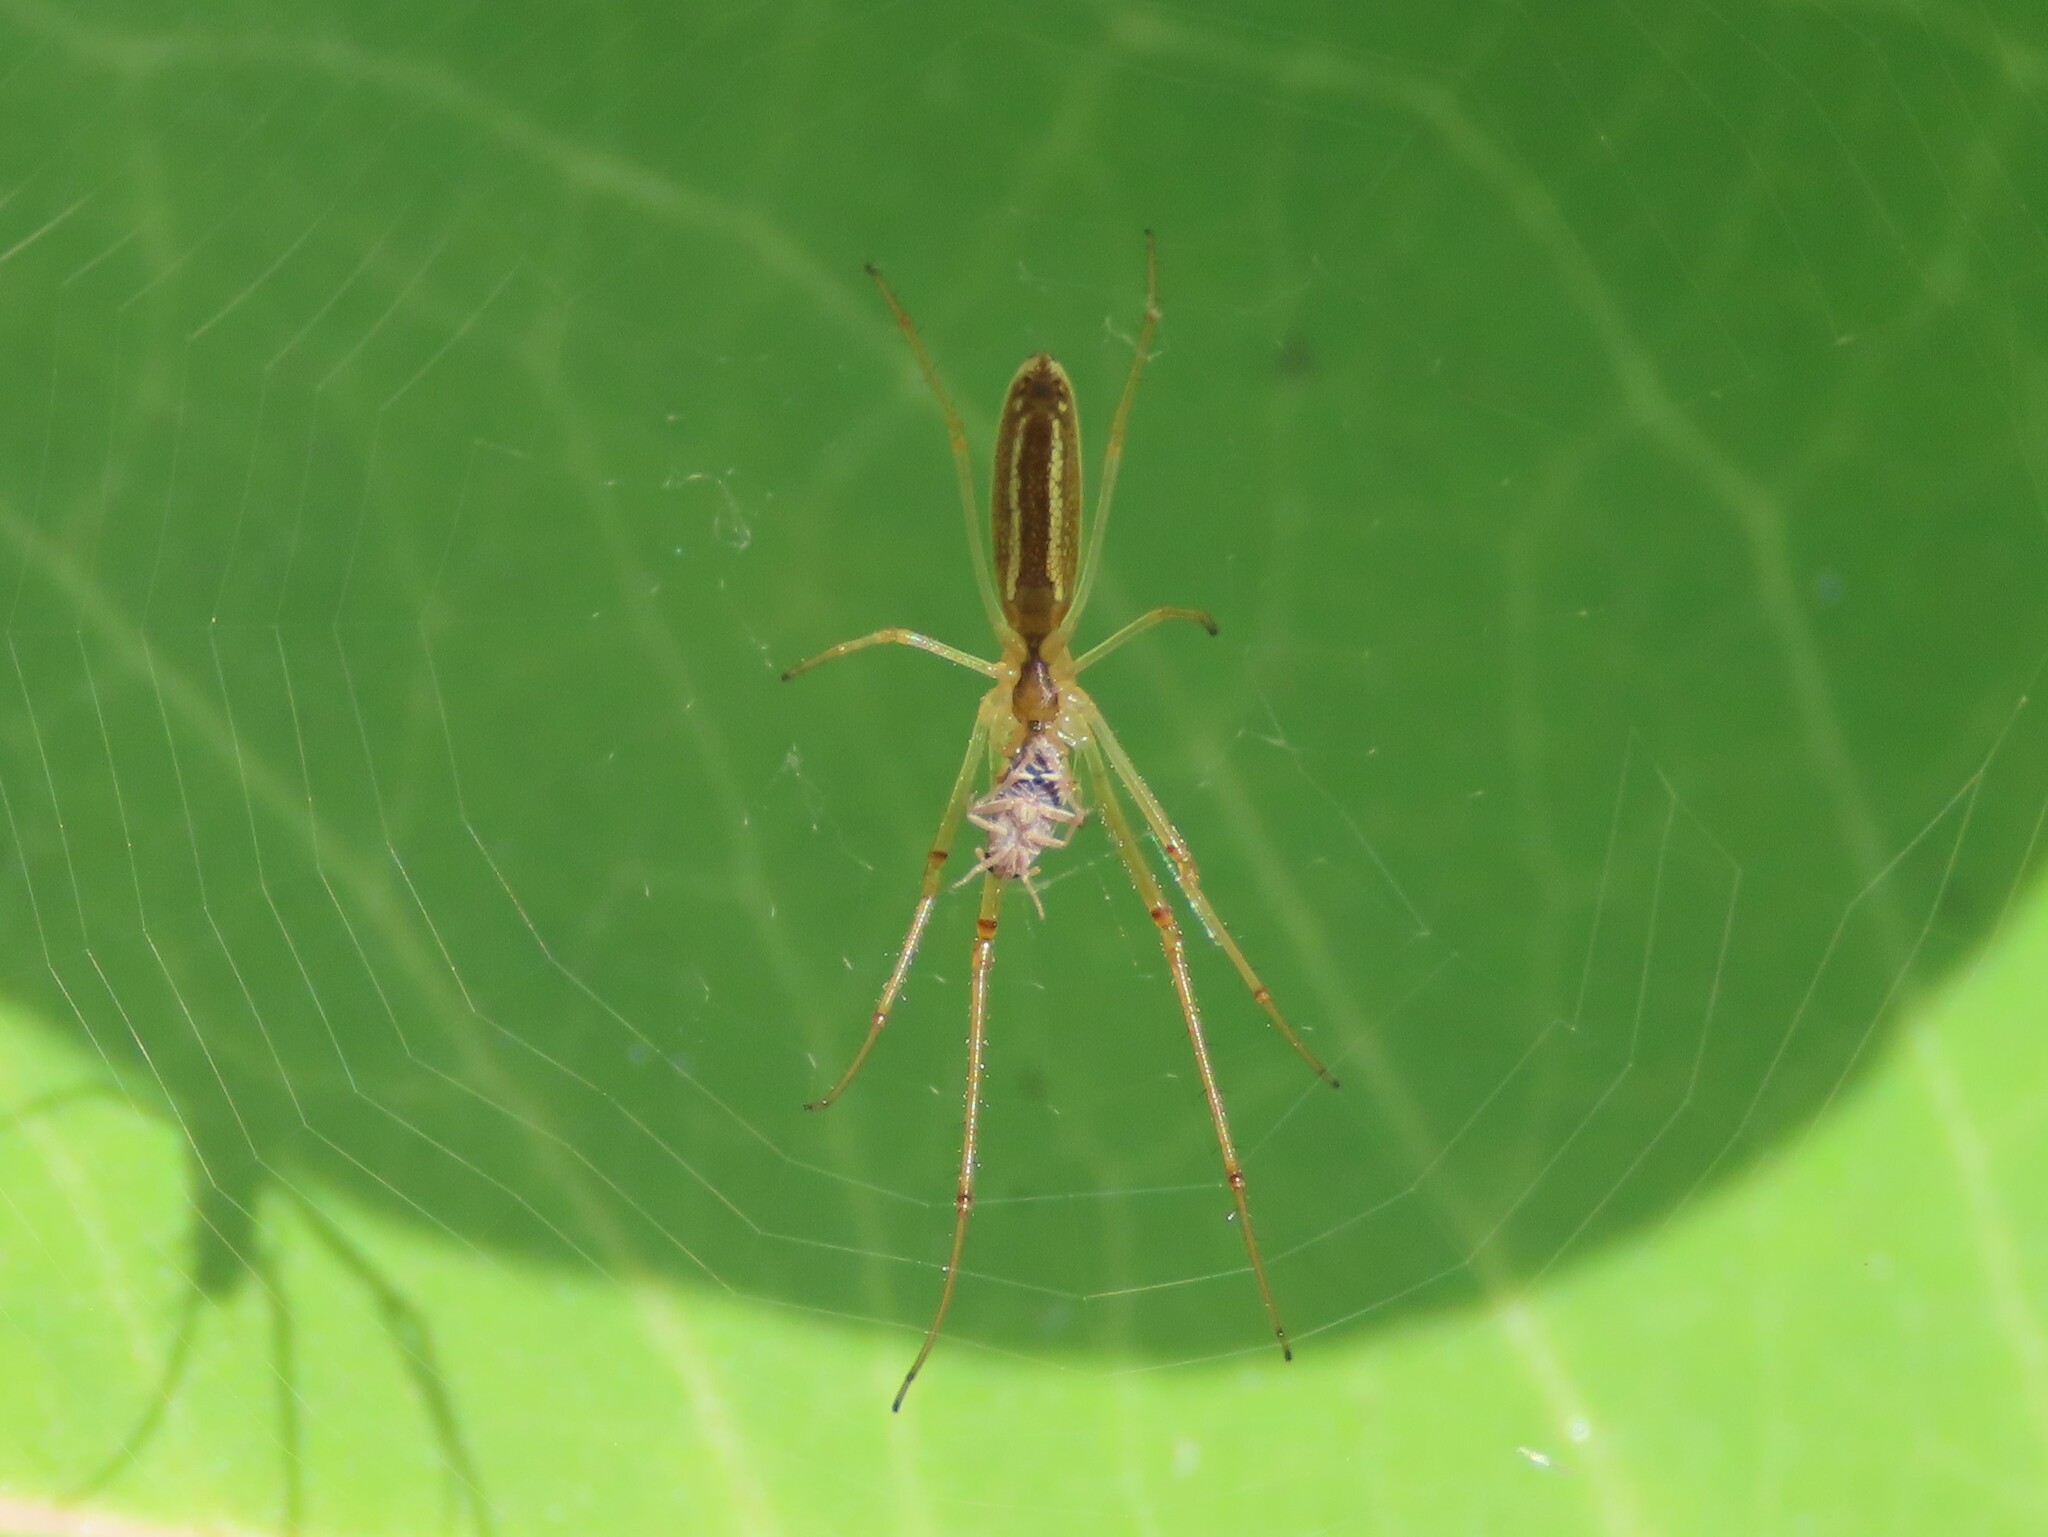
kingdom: Animalia
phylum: Arthropoda
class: Arachnida
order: Araneae
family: Tetragnathidae
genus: Tetragnatha
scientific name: Tetragnatha extensa
